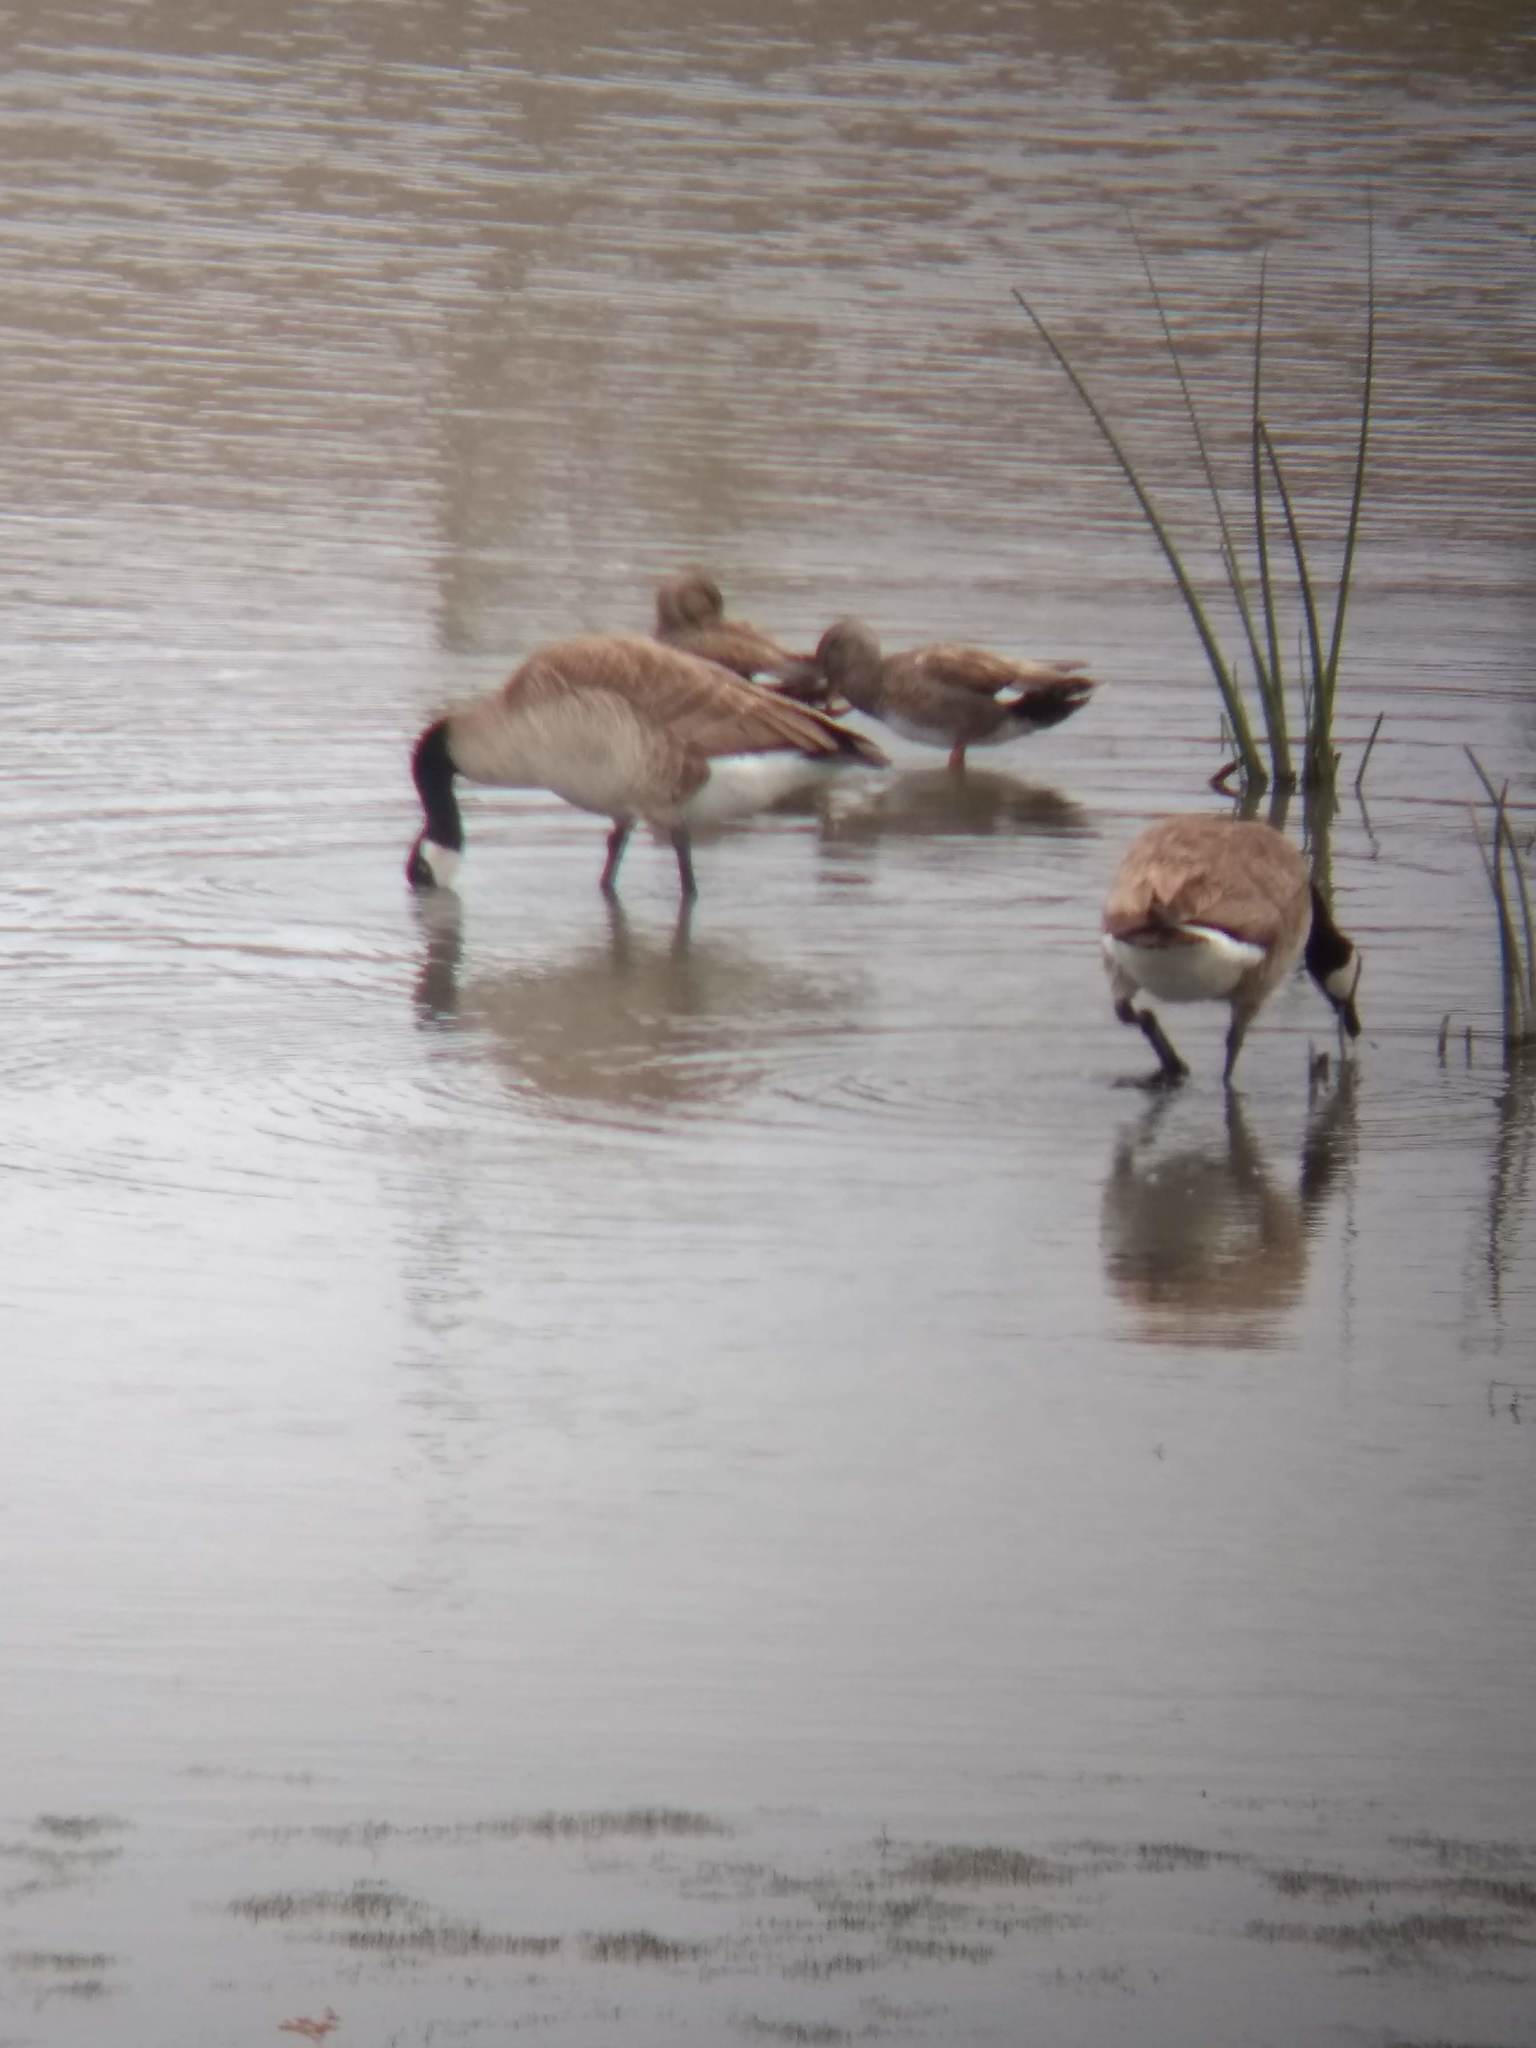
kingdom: Animalia
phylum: Chordata
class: Aves
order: Anseriformes
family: Anatidae
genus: Branta
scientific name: Branta canadensis
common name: Canada goose
